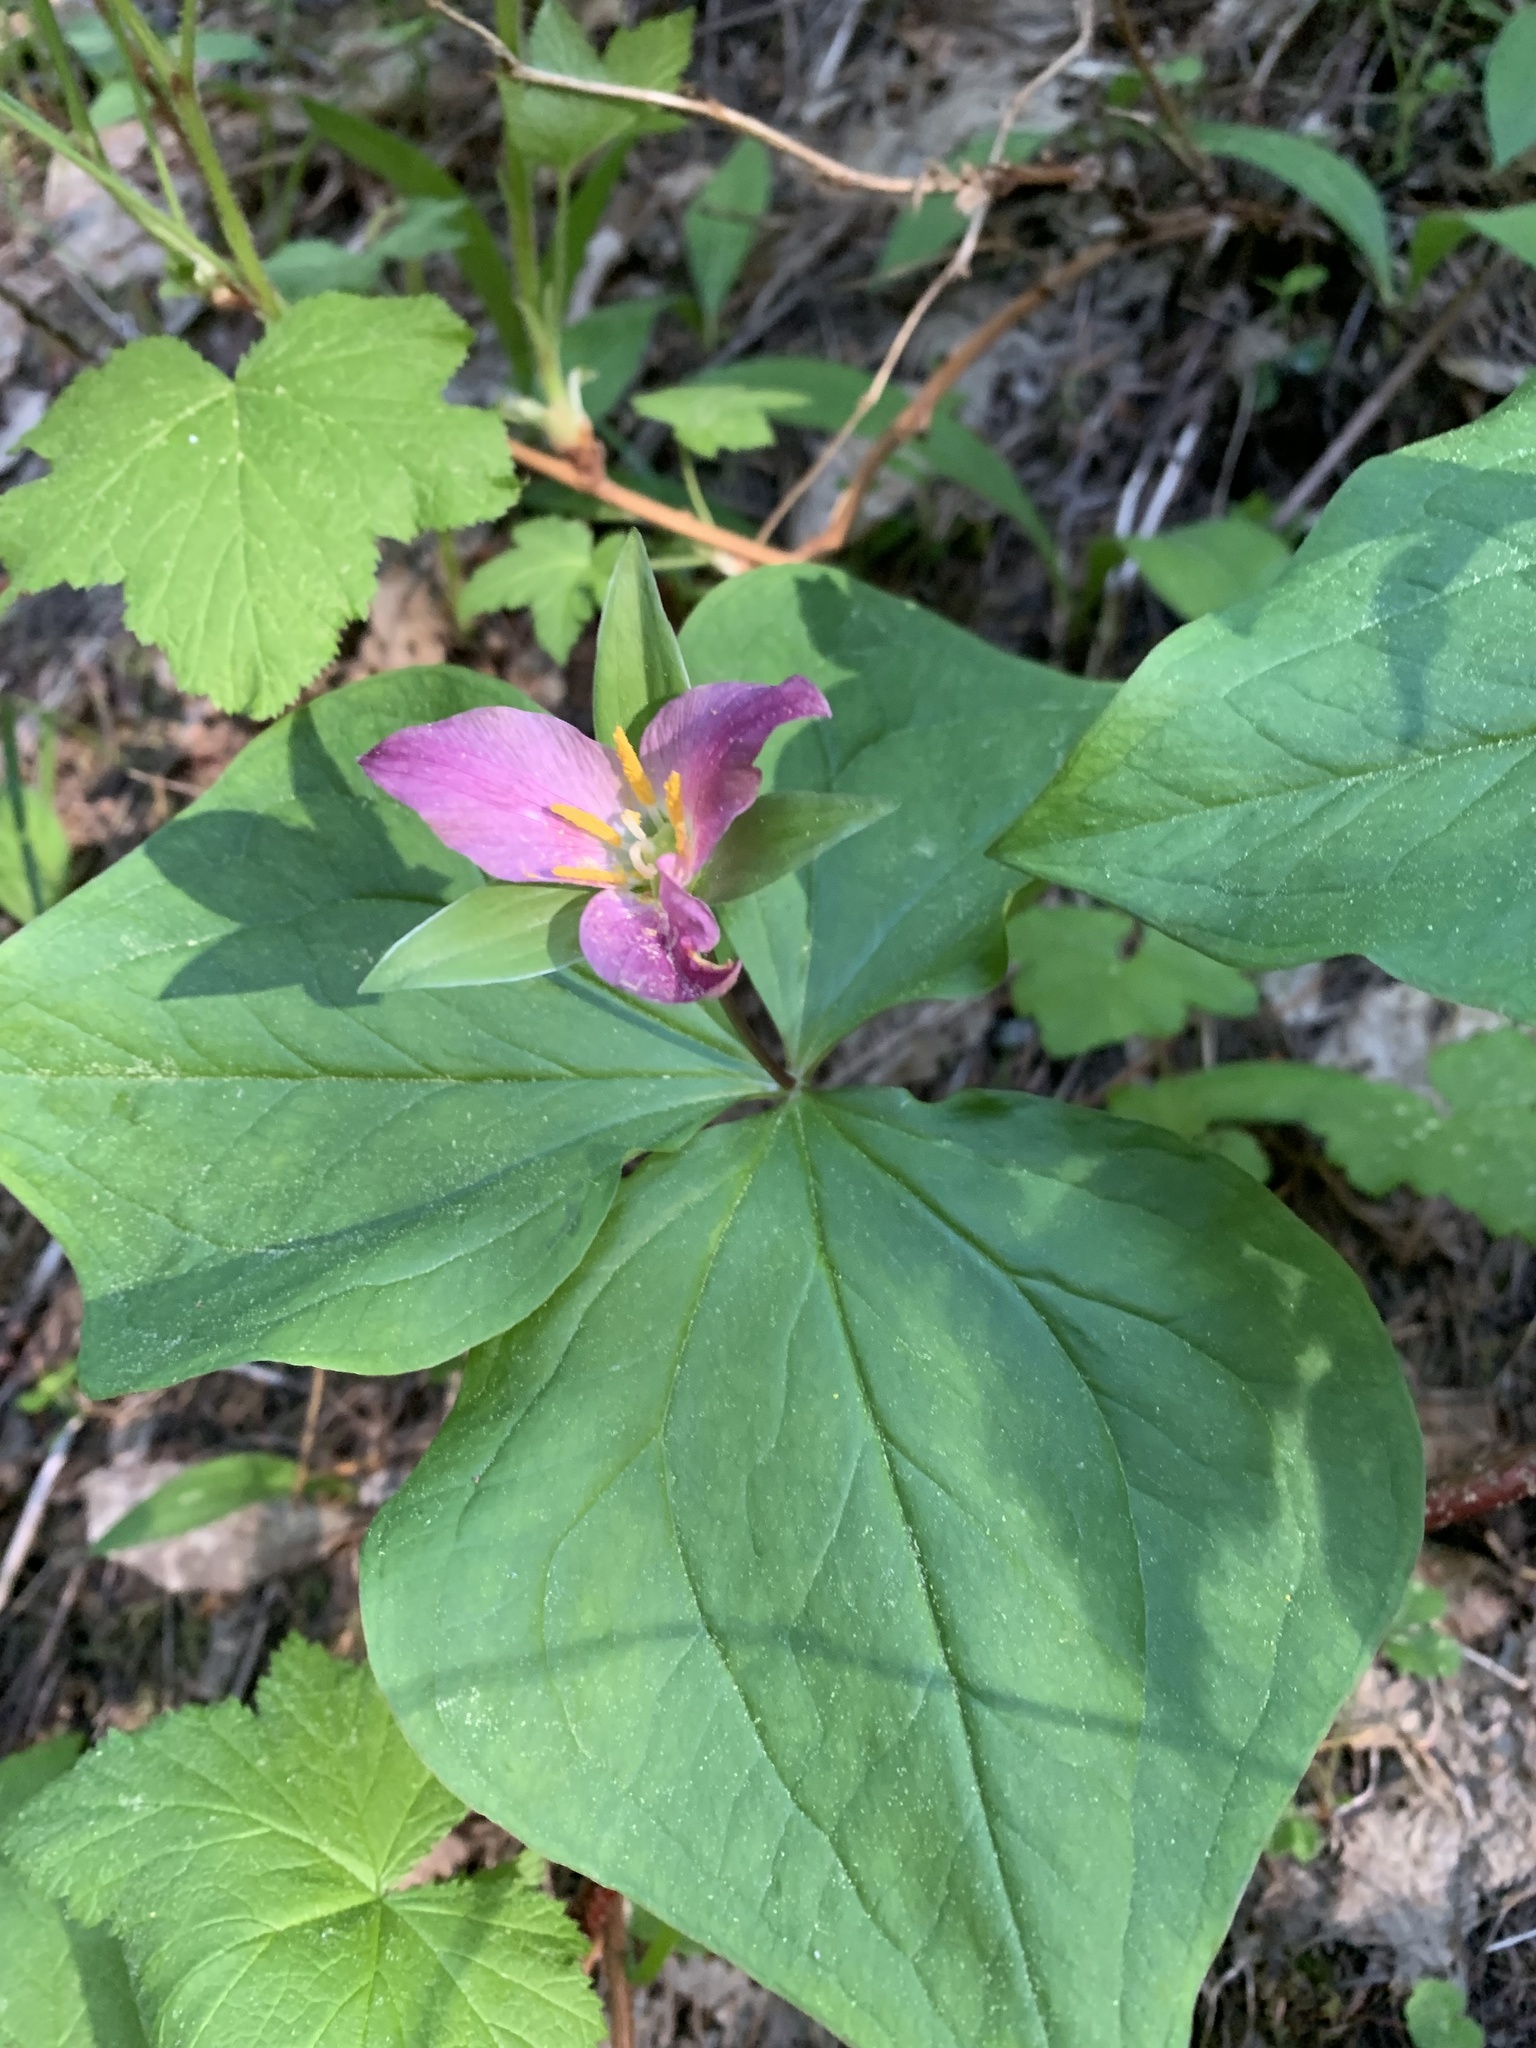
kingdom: Plantae
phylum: Tracheophyta
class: Liliopsida
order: Liliales
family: Melanthiaceae
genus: Trillium
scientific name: Trillium ovatum
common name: Pacific trillium
